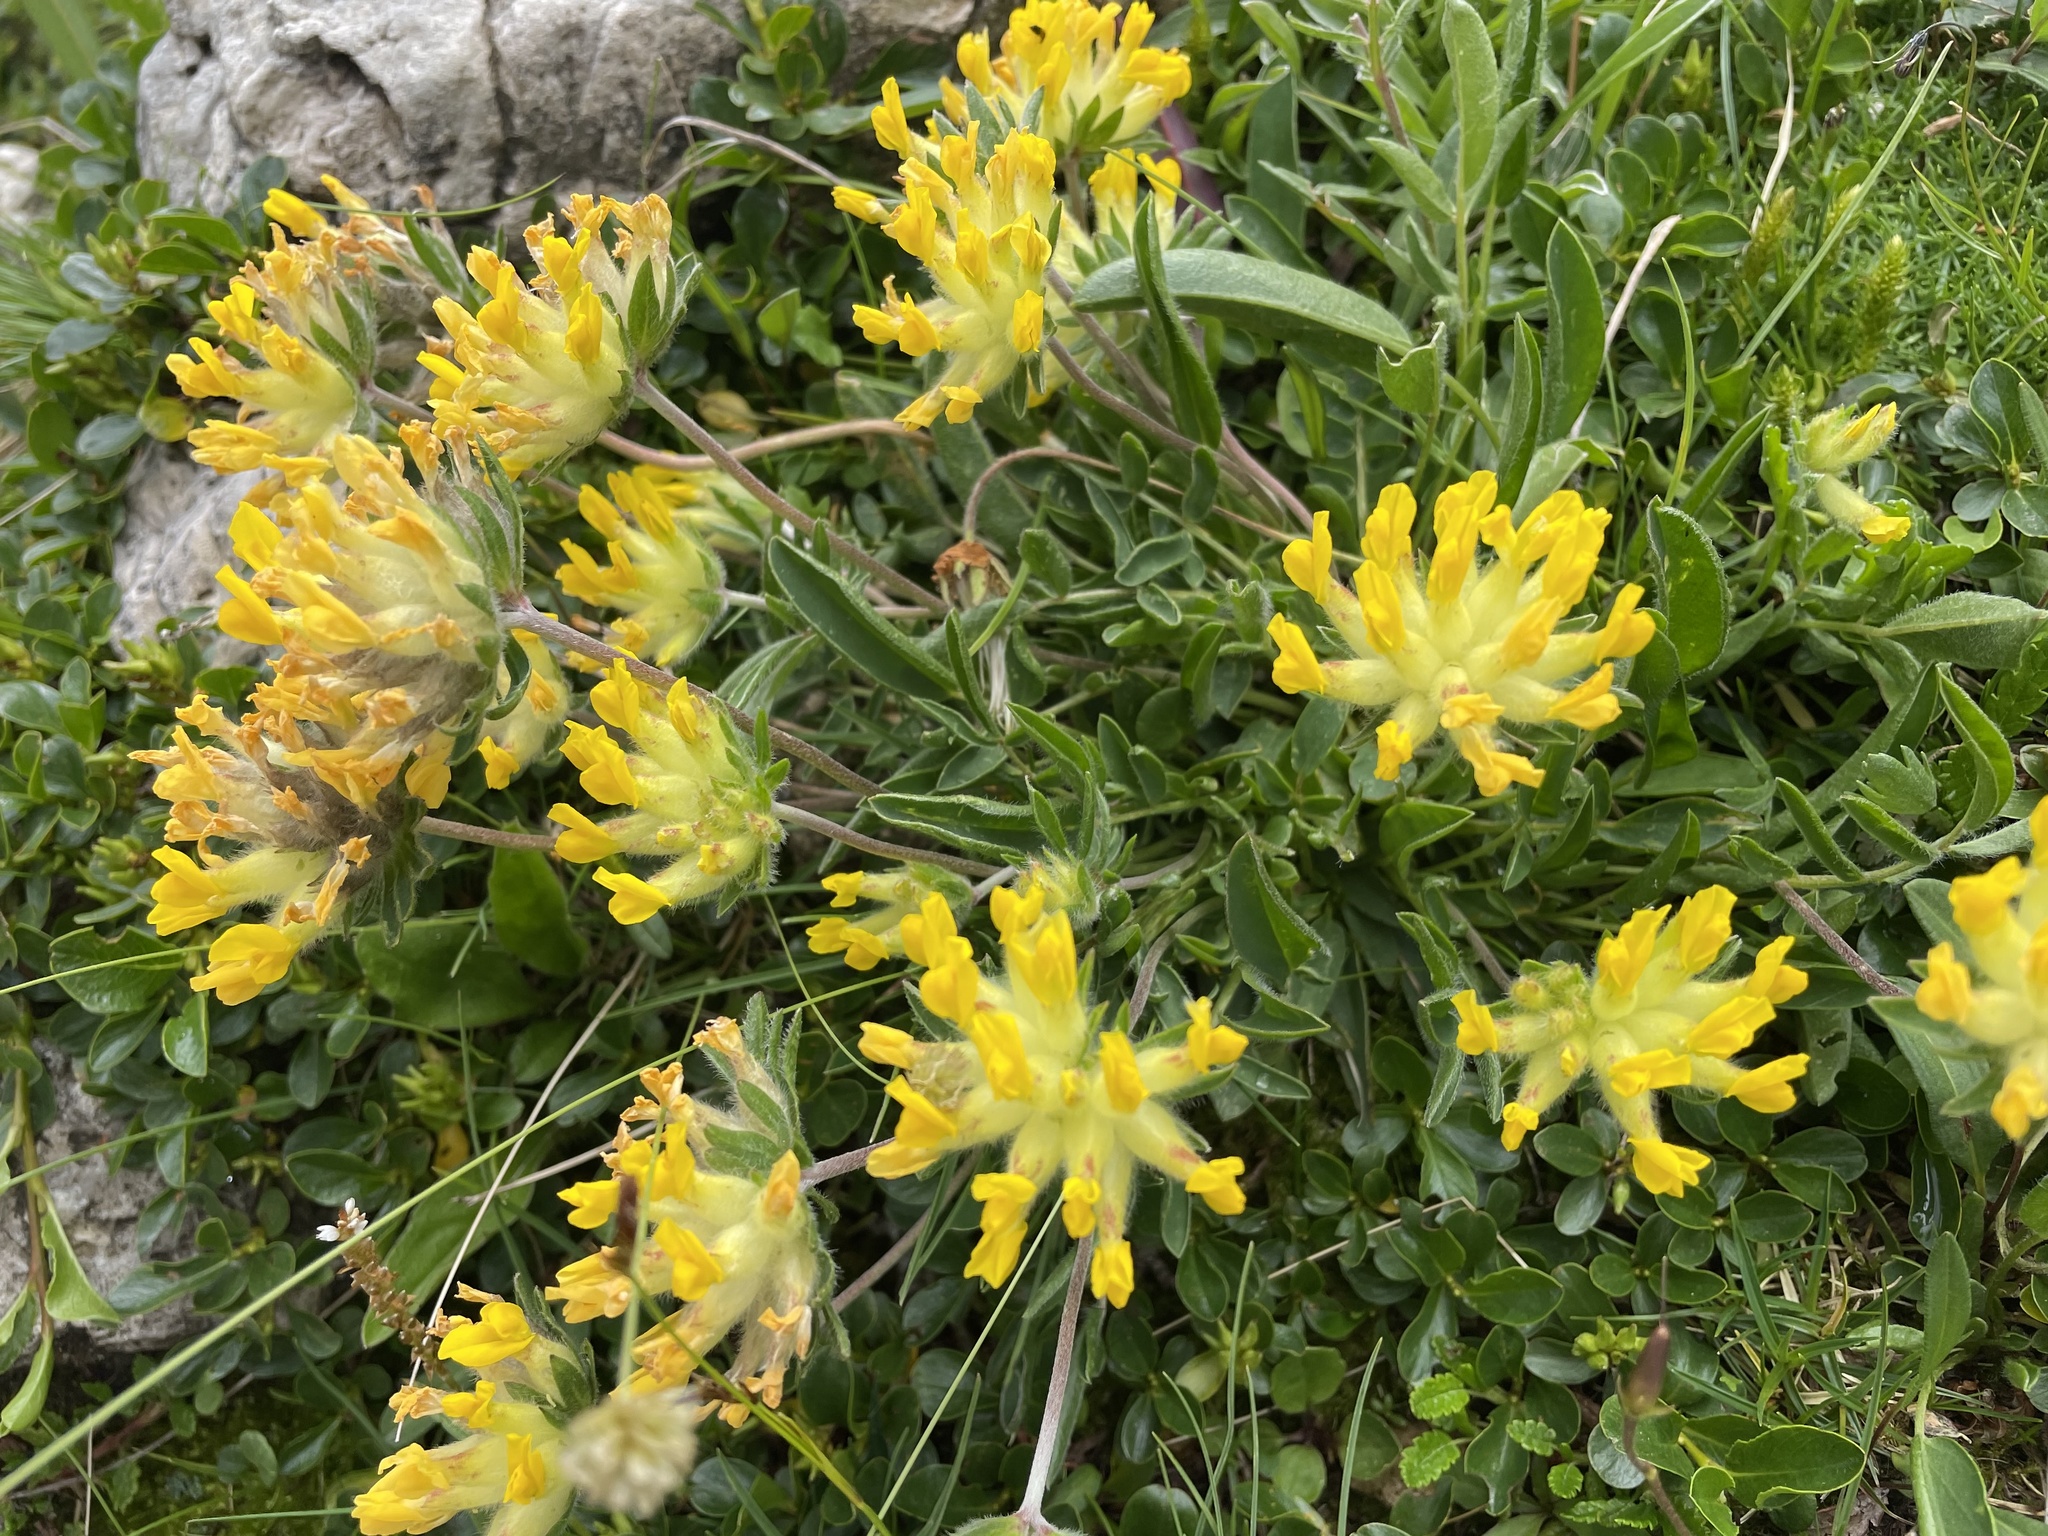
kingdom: Plantae
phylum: Tracheophyta
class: Magnoliopsida
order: Fabales
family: Fabaceae
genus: Anthyllis
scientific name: Anthyllis vulneraria
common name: Kidney vetch
